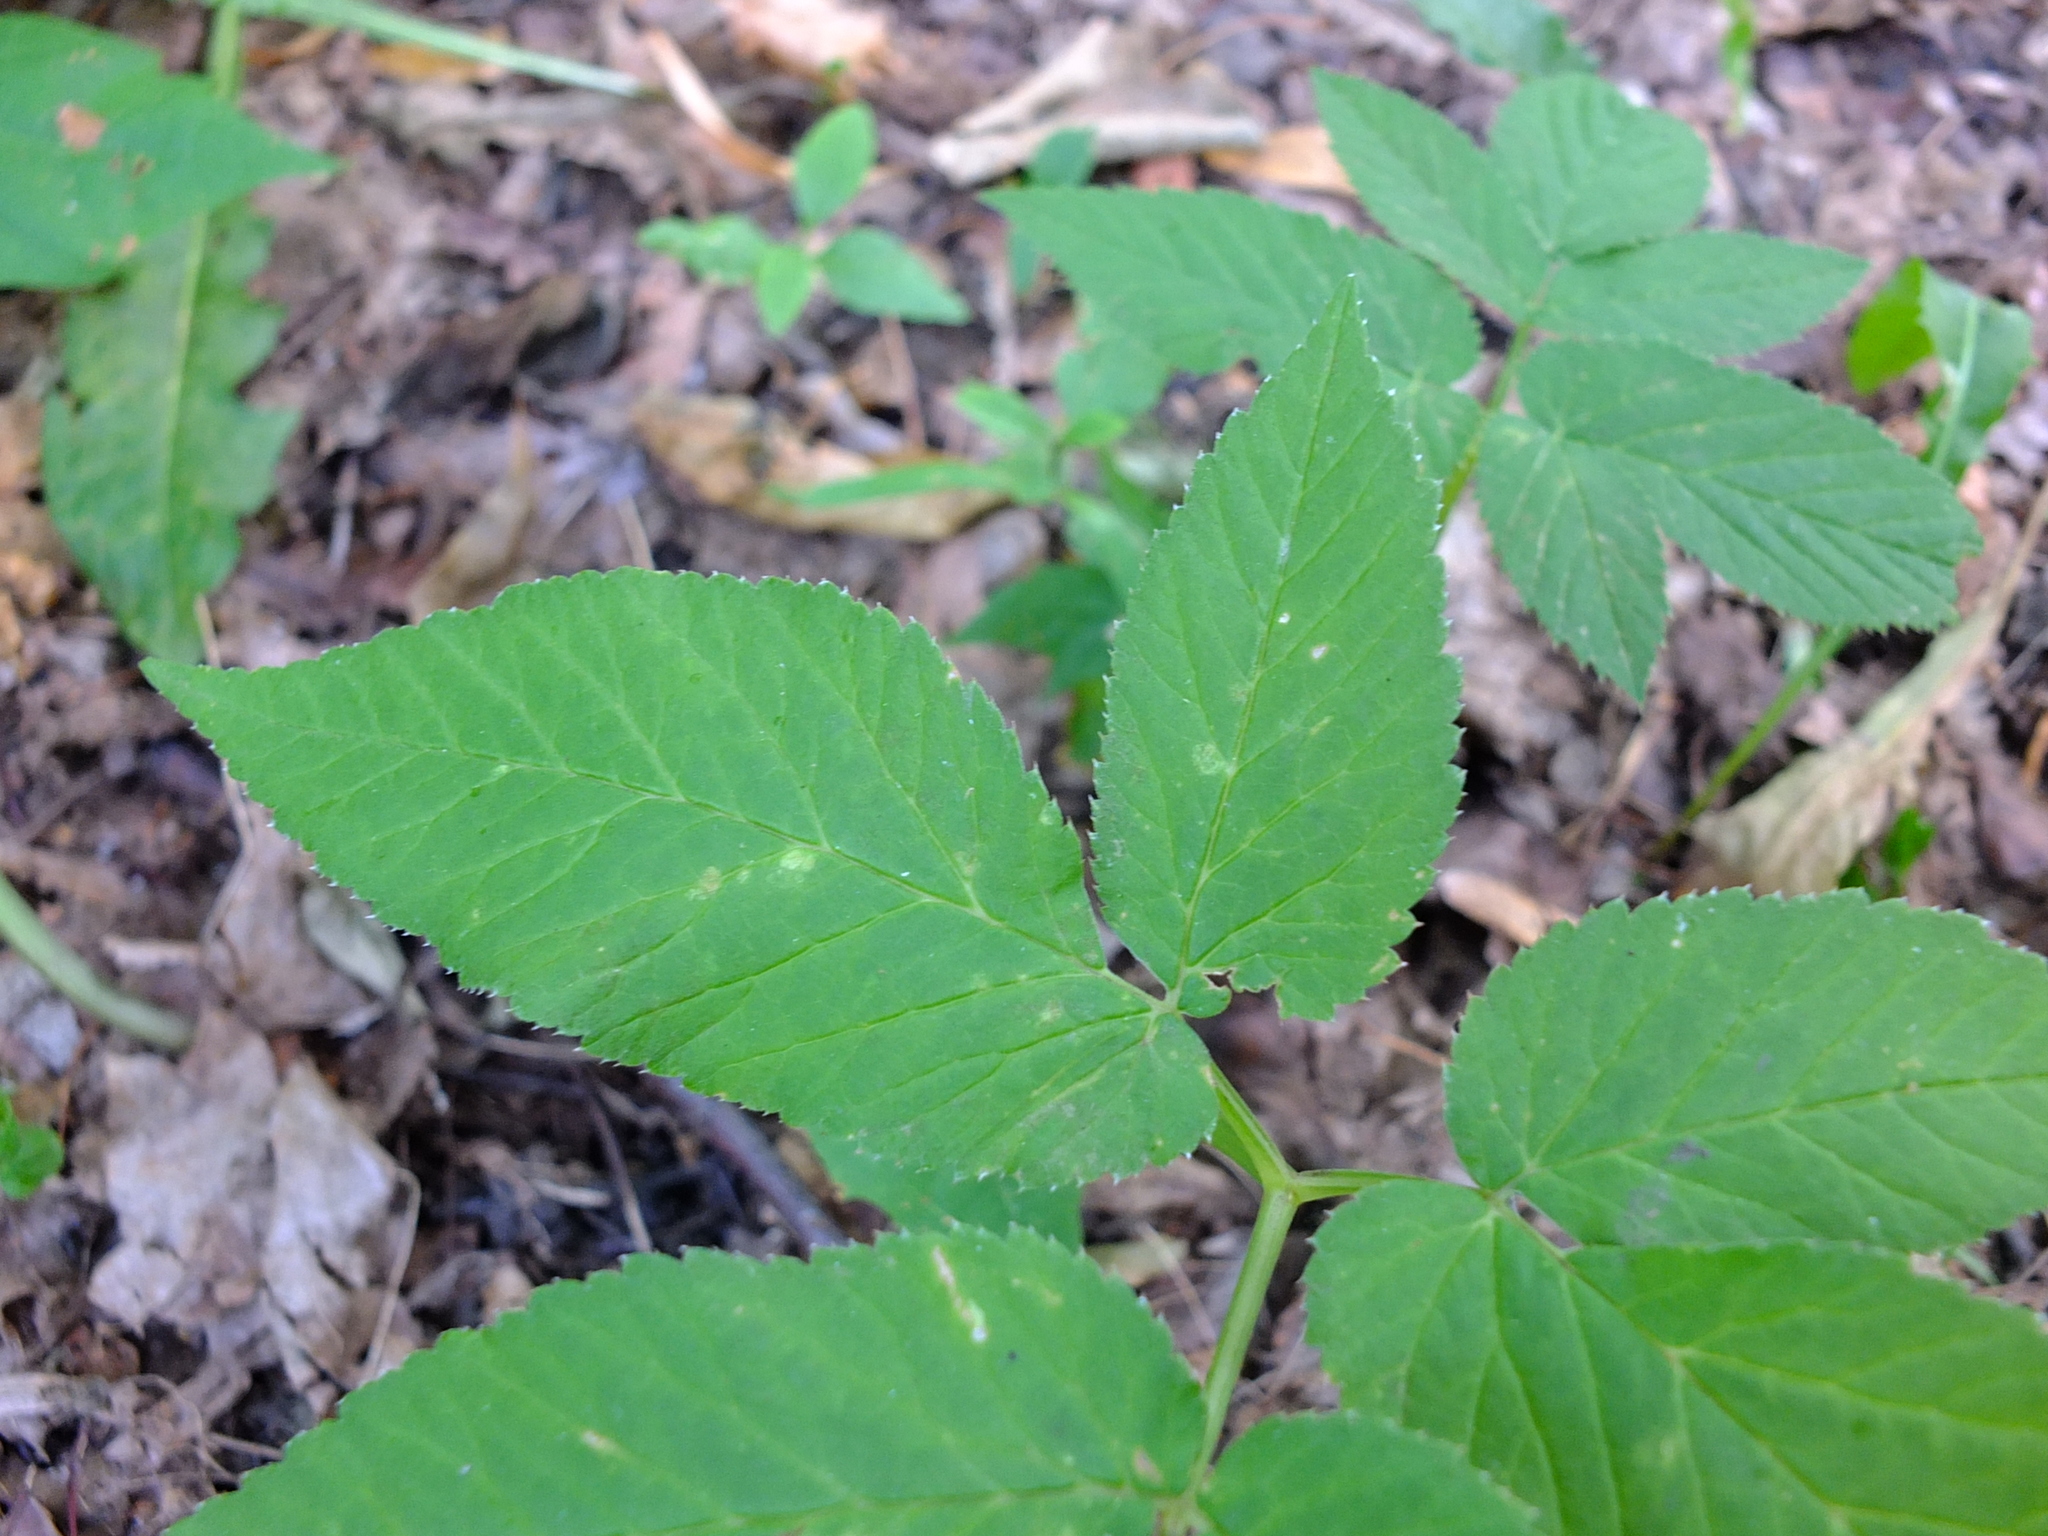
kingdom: Plantae
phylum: Tracheophyta
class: Magnoliopsida
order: Apiales
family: Apiaceae
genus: Aegopodium
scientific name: Aegopodium podagraria
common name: Ground-elder
